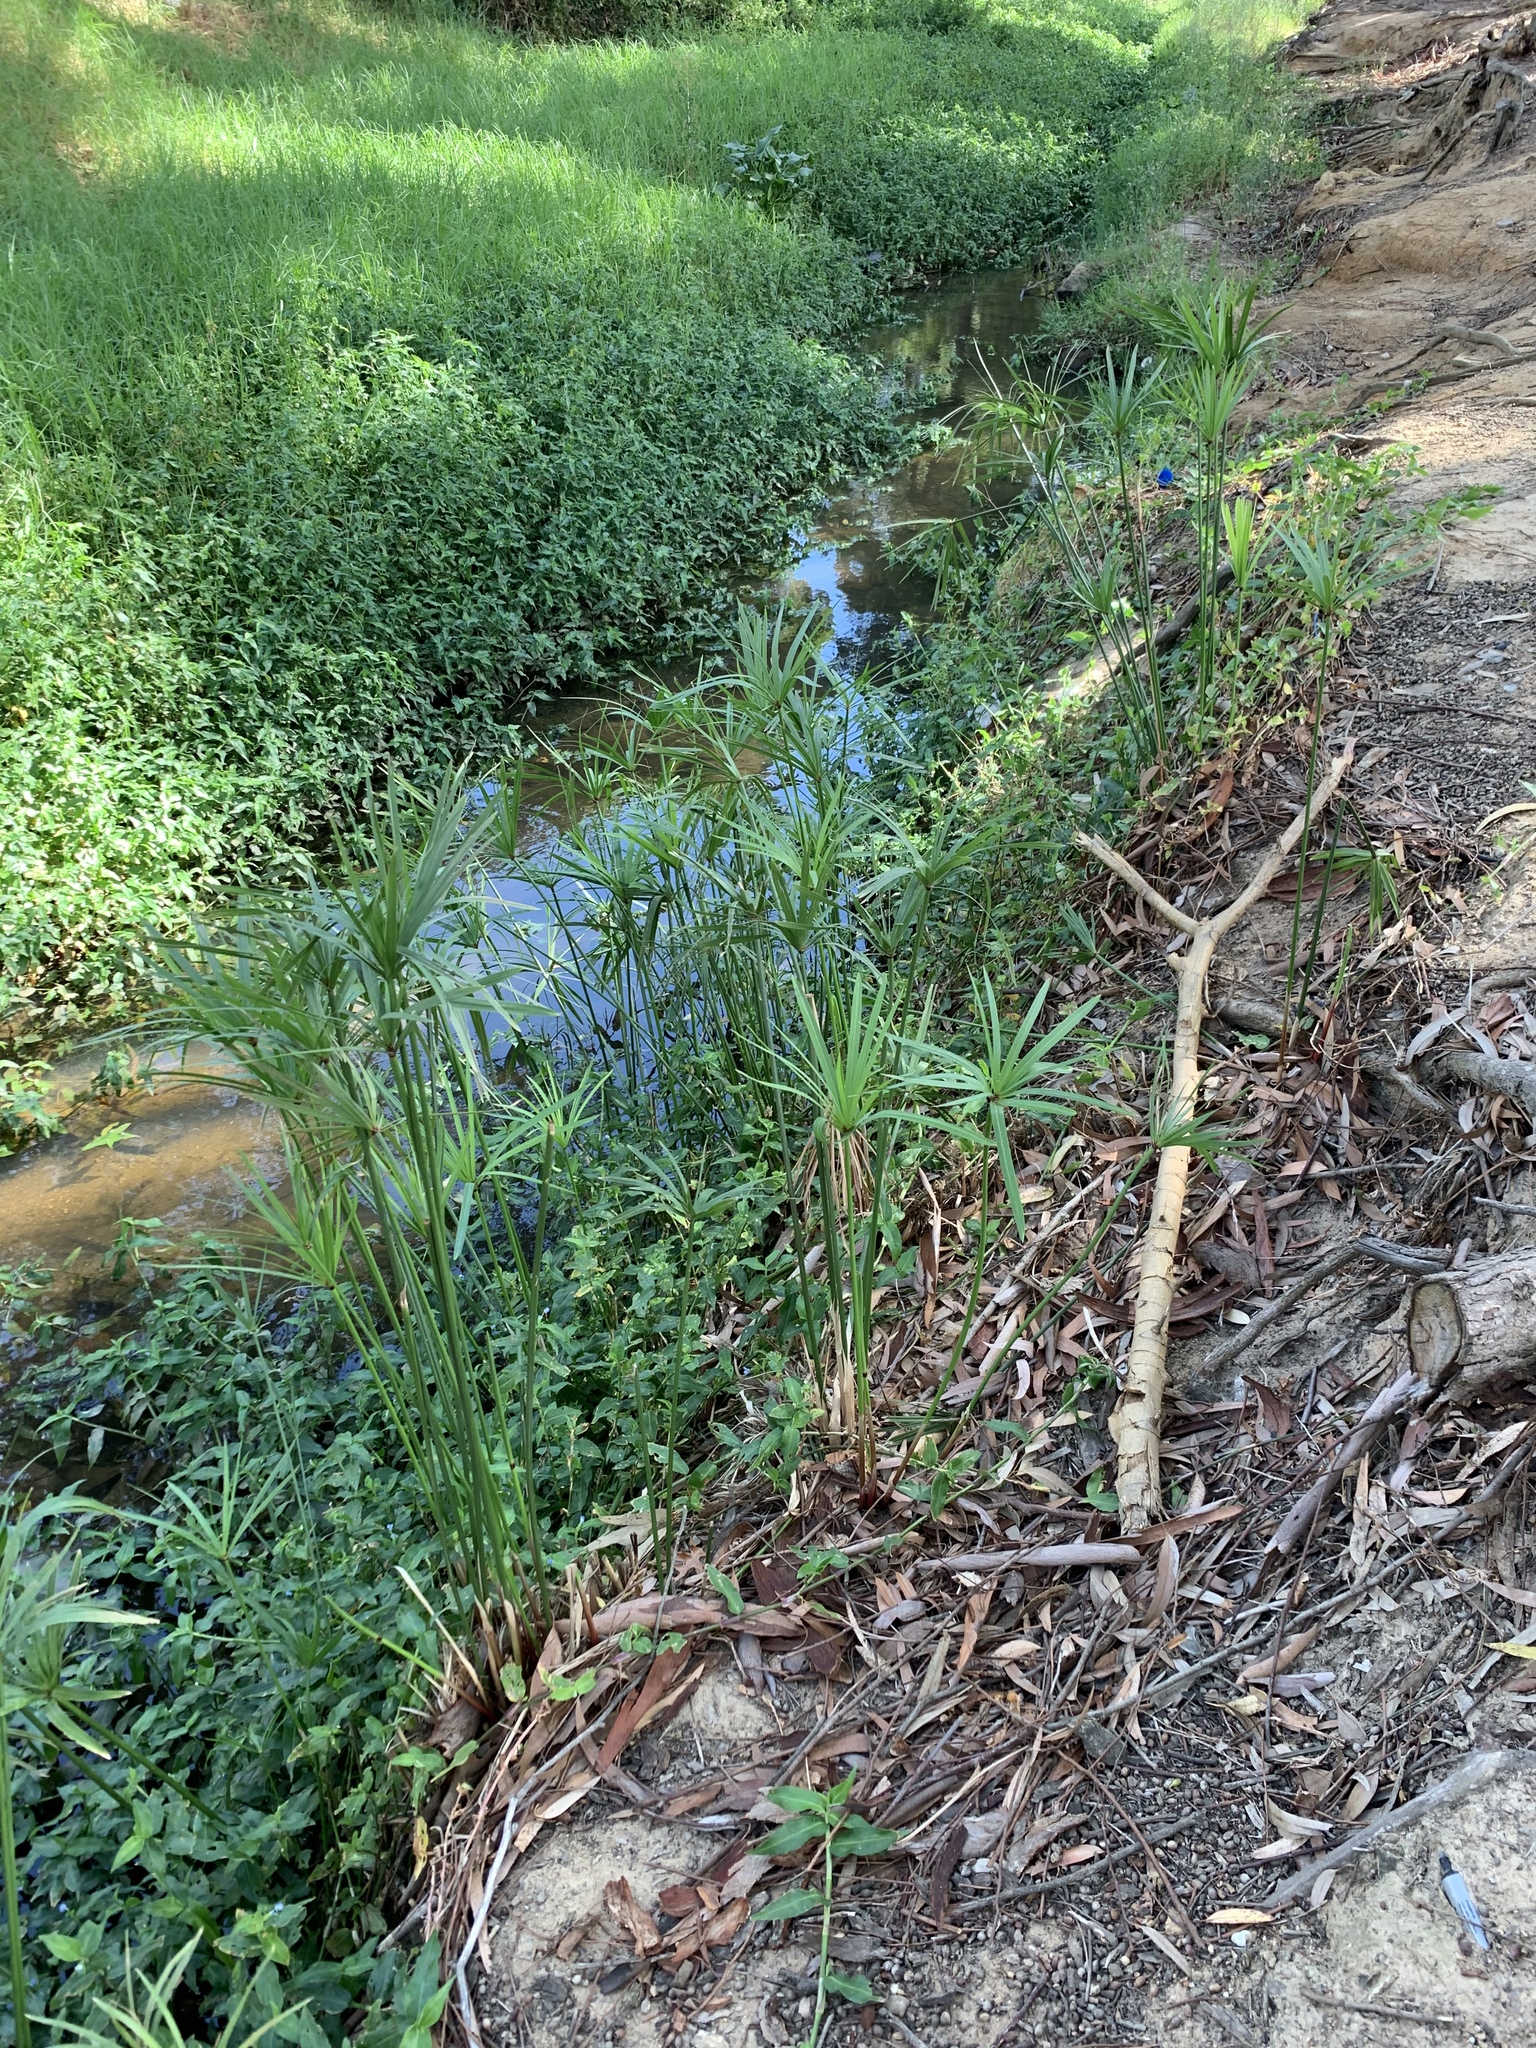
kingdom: Plantae
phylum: Tracheophyta
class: Liliopsida
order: Poales
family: Cyperaceae
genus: Cyperus
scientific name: Cyperus textilis
